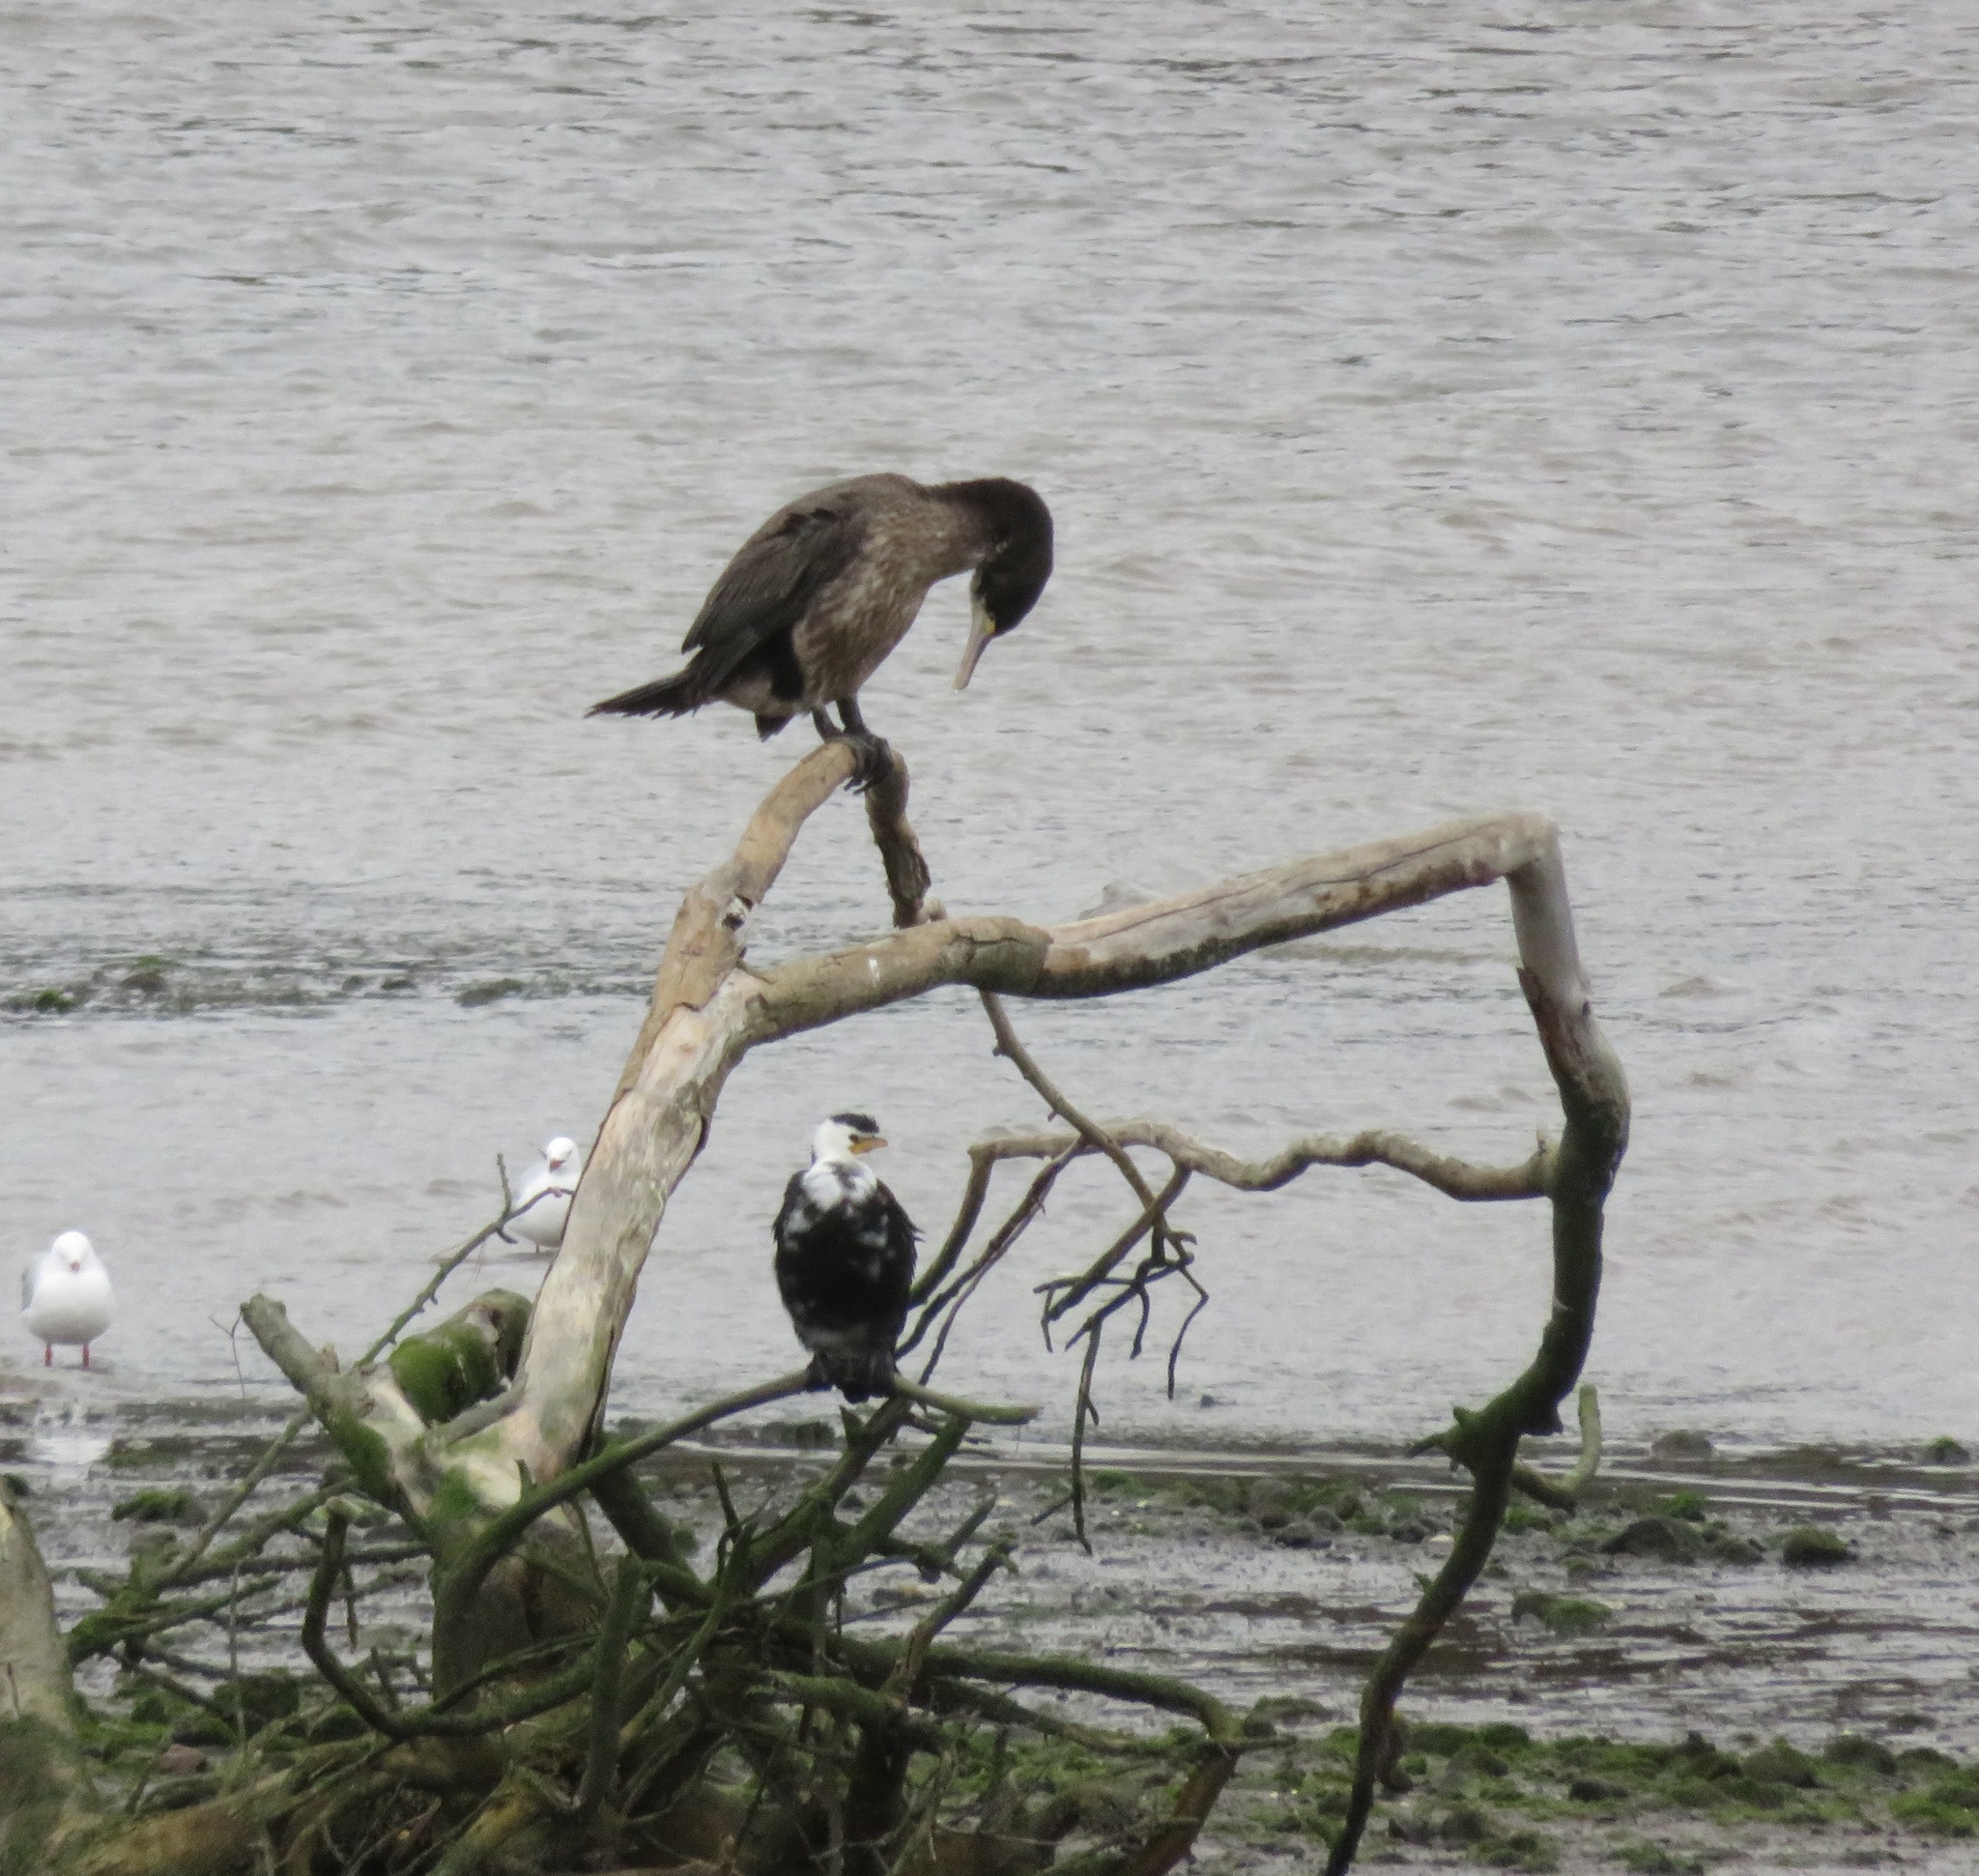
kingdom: Animalia
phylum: Chordata
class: Aves
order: Suliformes
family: Phalacrocoracidae
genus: Phalacrocorax
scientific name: Phalacrocorax varius
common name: Pied cormorant
